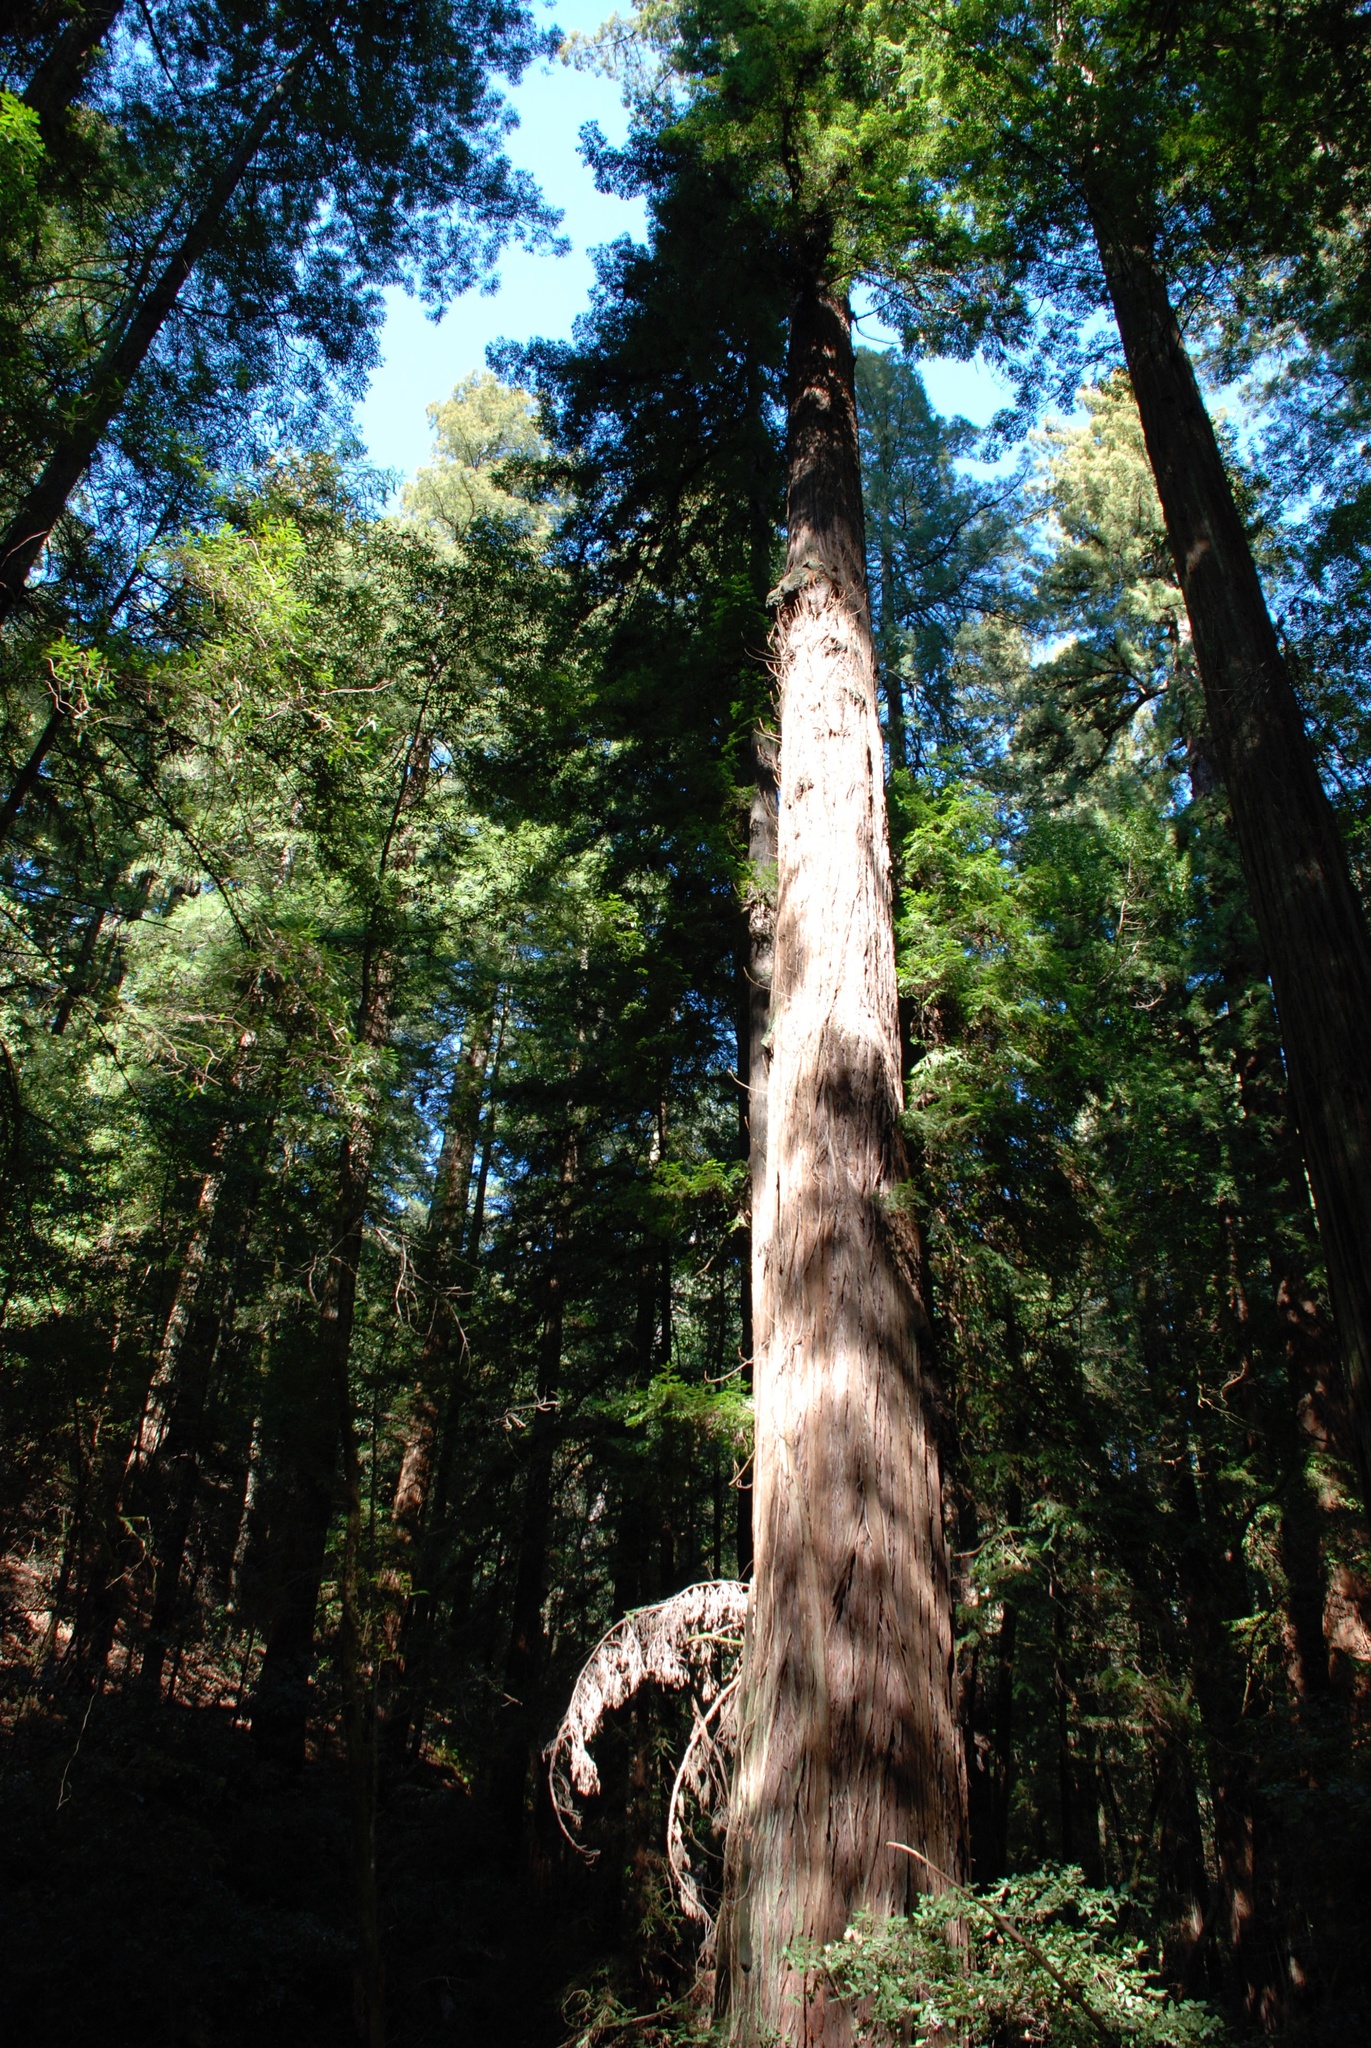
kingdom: Plantae
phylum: Tracheophyta
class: Pinopsida
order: Pinales
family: Cupressaceae
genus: Sequoia
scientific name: Sequoia sempervirens
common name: Coast redwood
